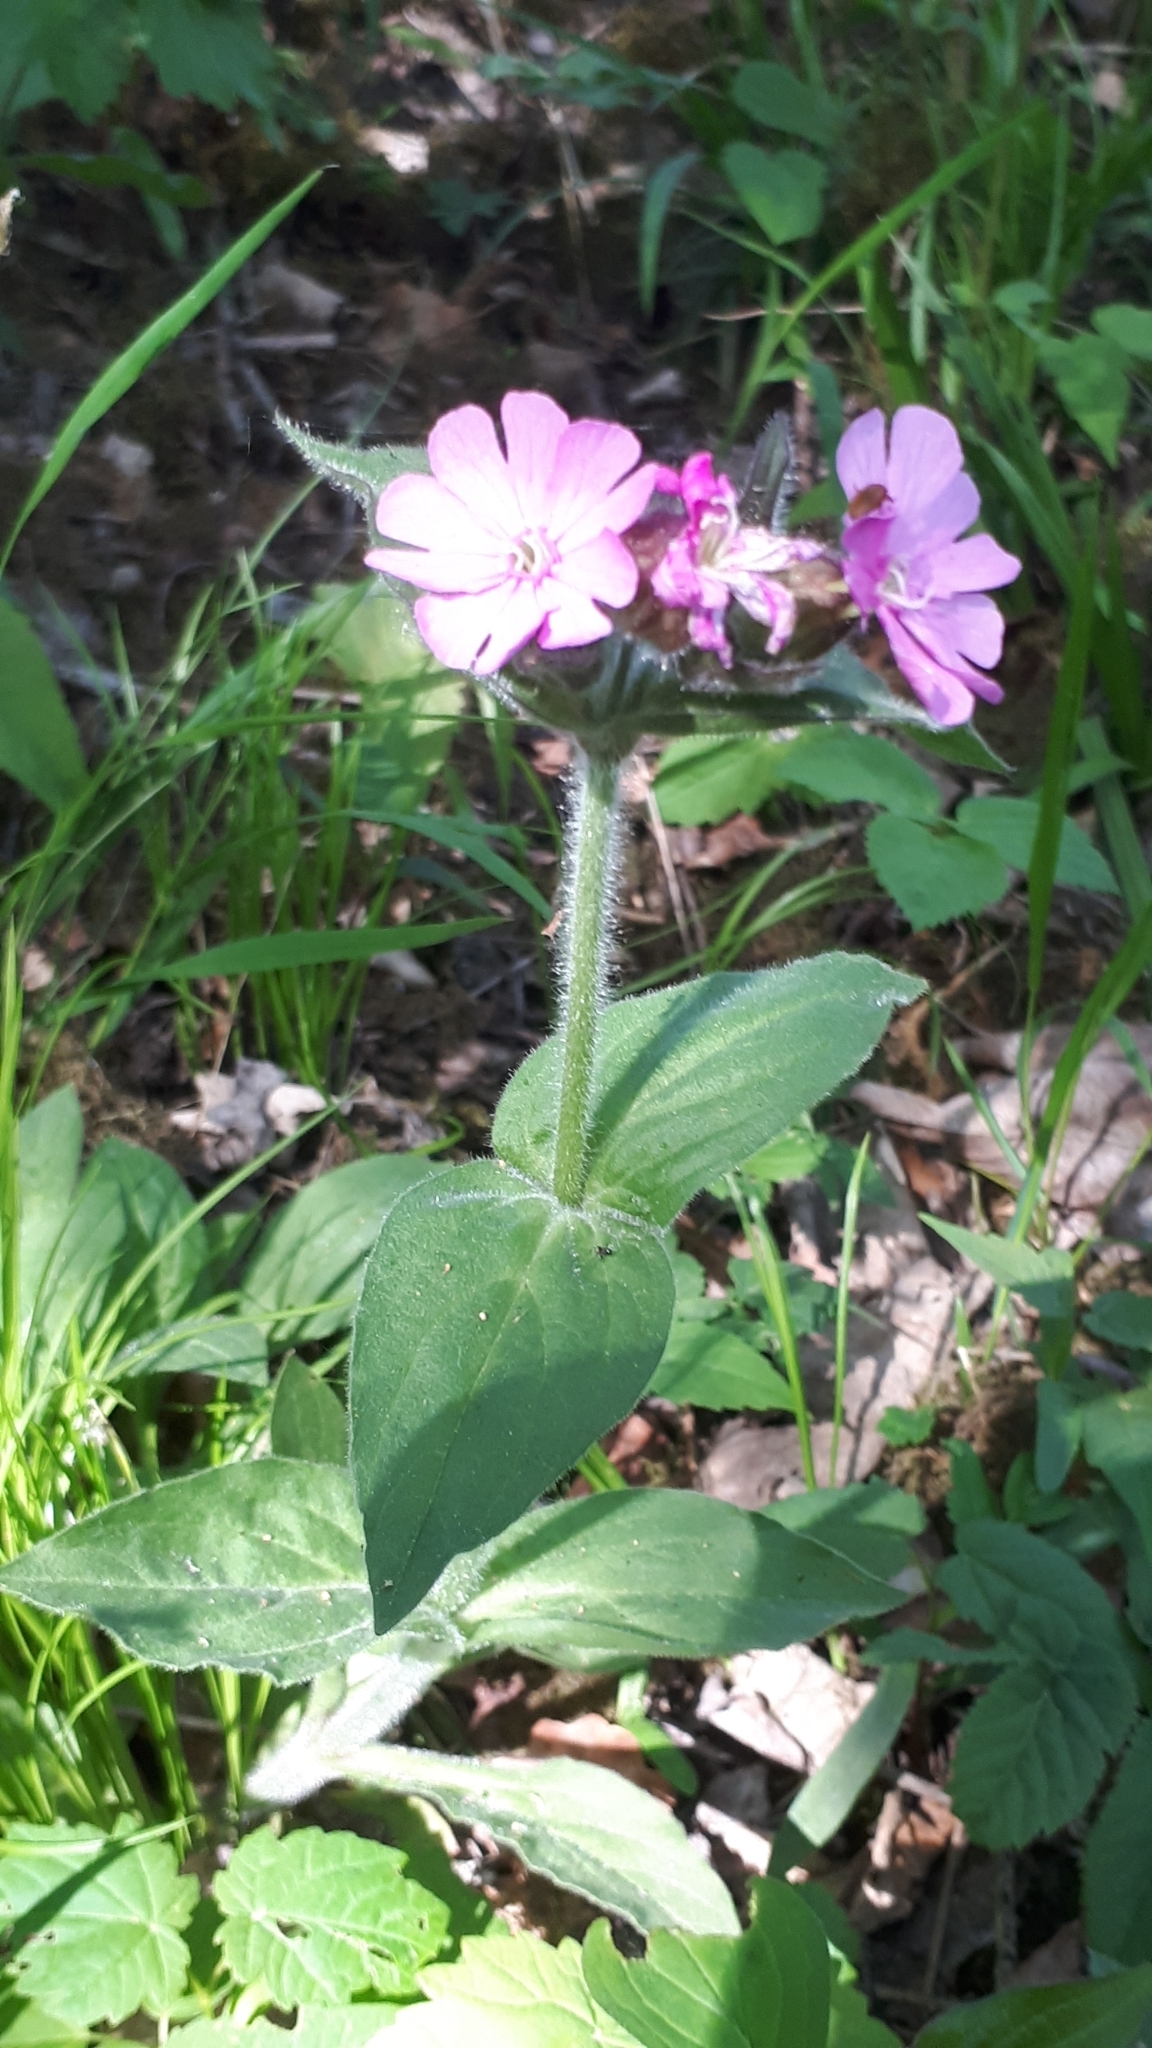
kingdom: Plantae
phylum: Tracheophyta
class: Magnoliopsida
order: Caryophyllales
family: Caryophyllaceae
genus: Silene
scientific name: Silene dioica
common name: Red campion
